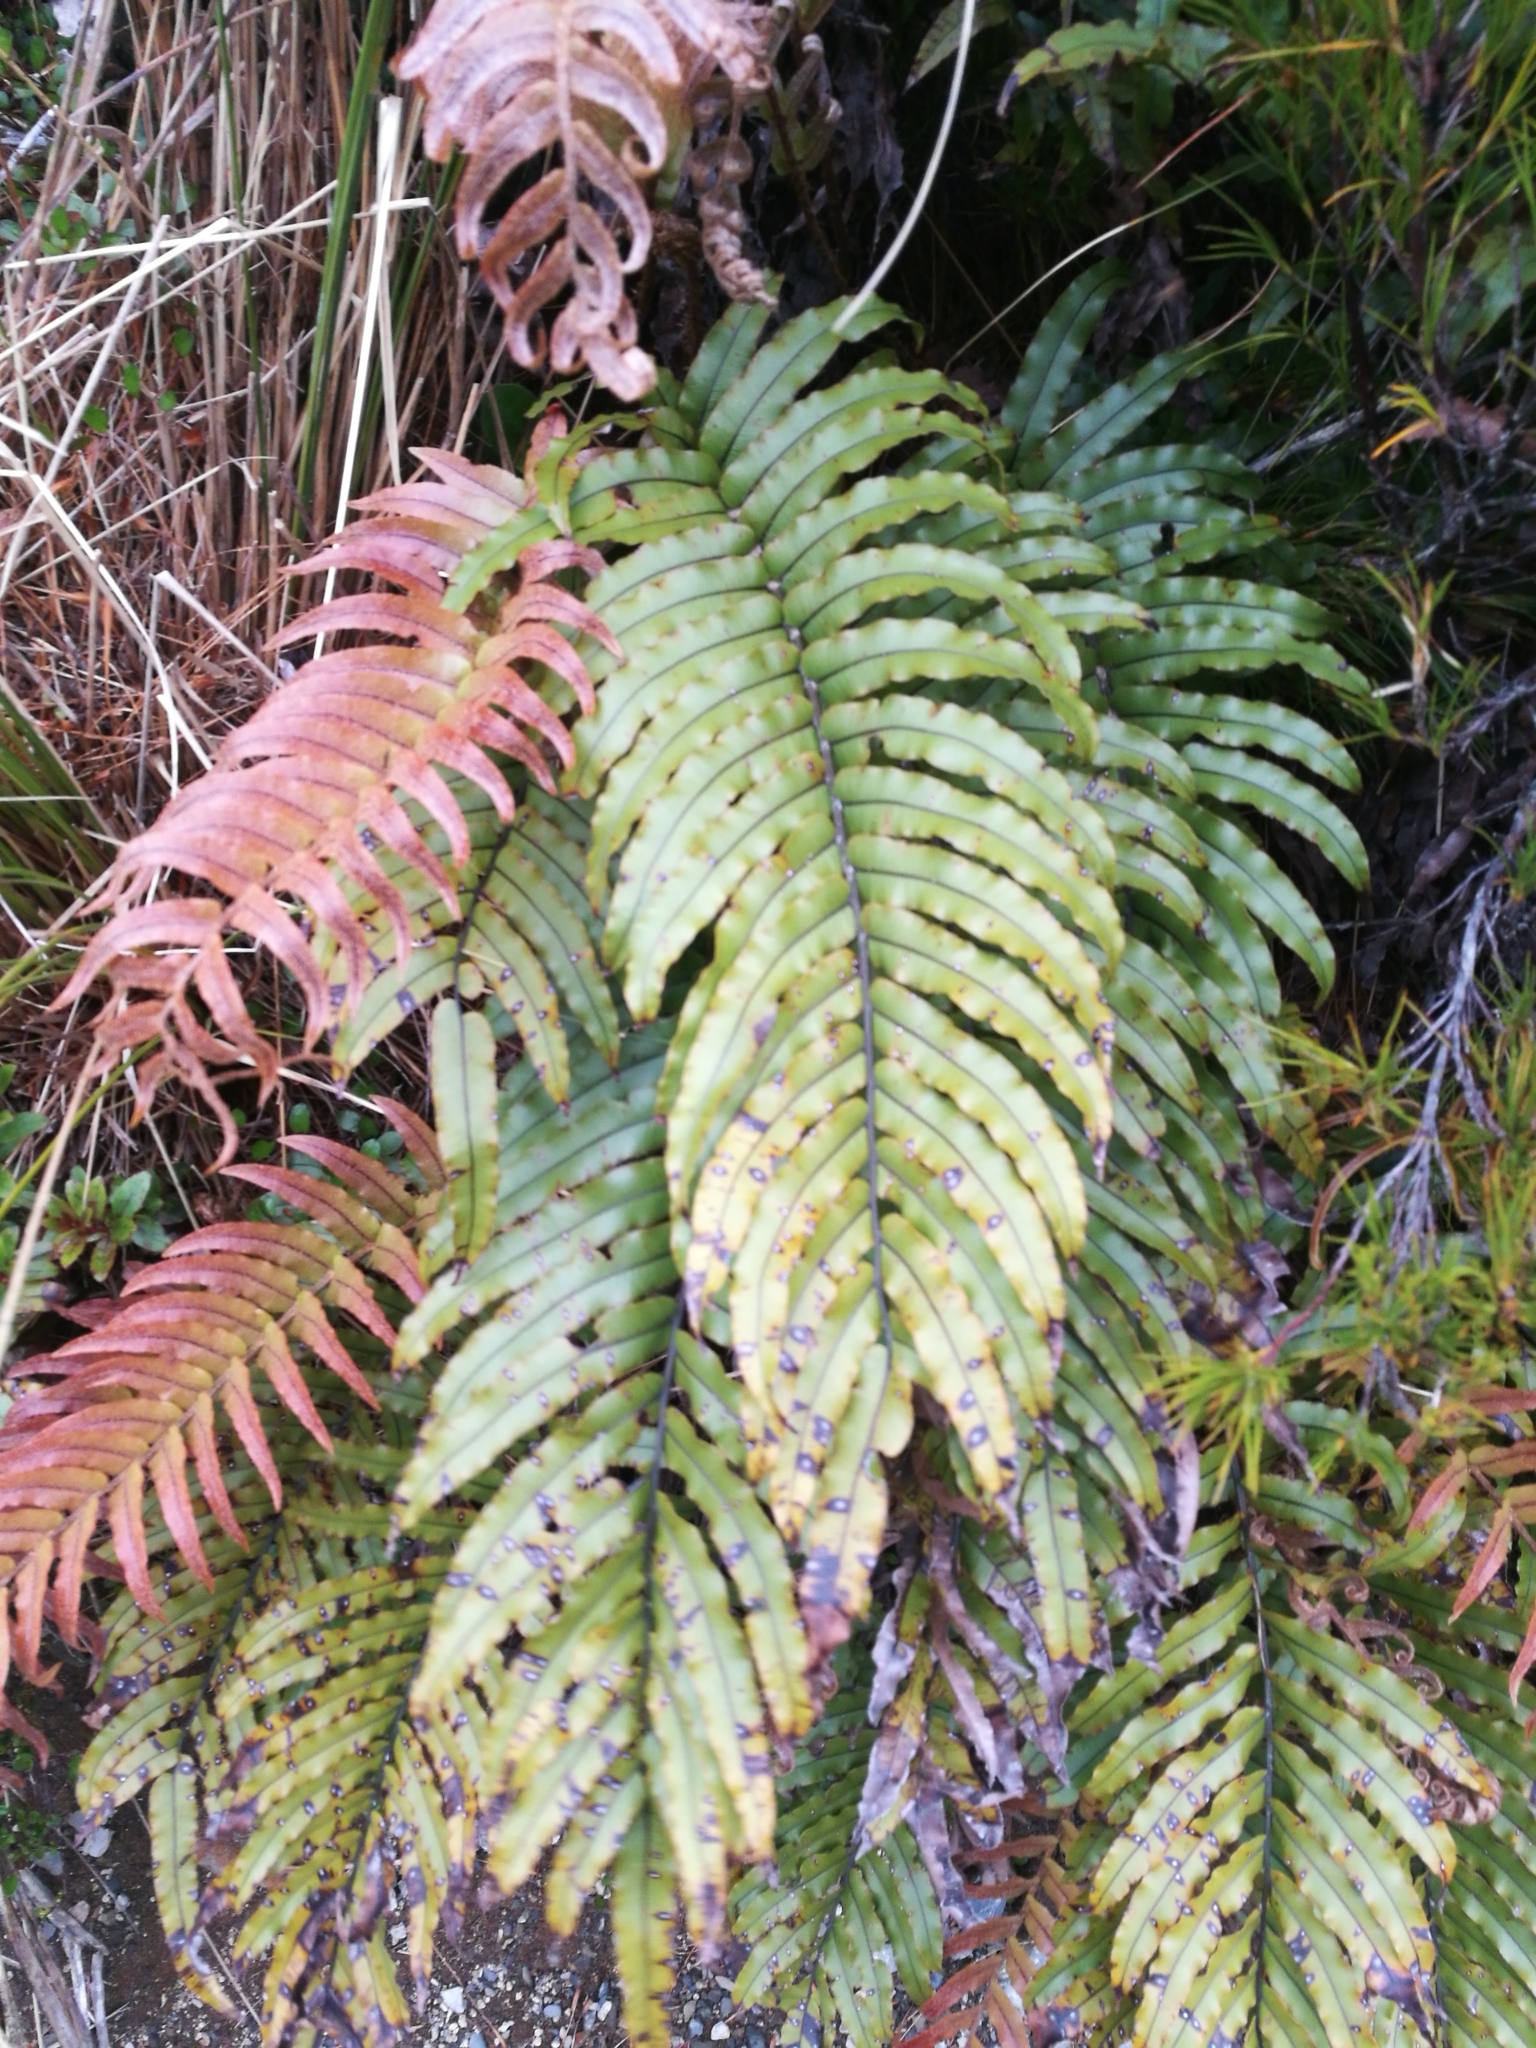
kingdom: Plantae
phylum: Tracheophyta
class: Polypodiopsida
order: Polypodiales
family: Blechnaceae
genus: Parablechnum
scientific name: Parablechnum montanum
